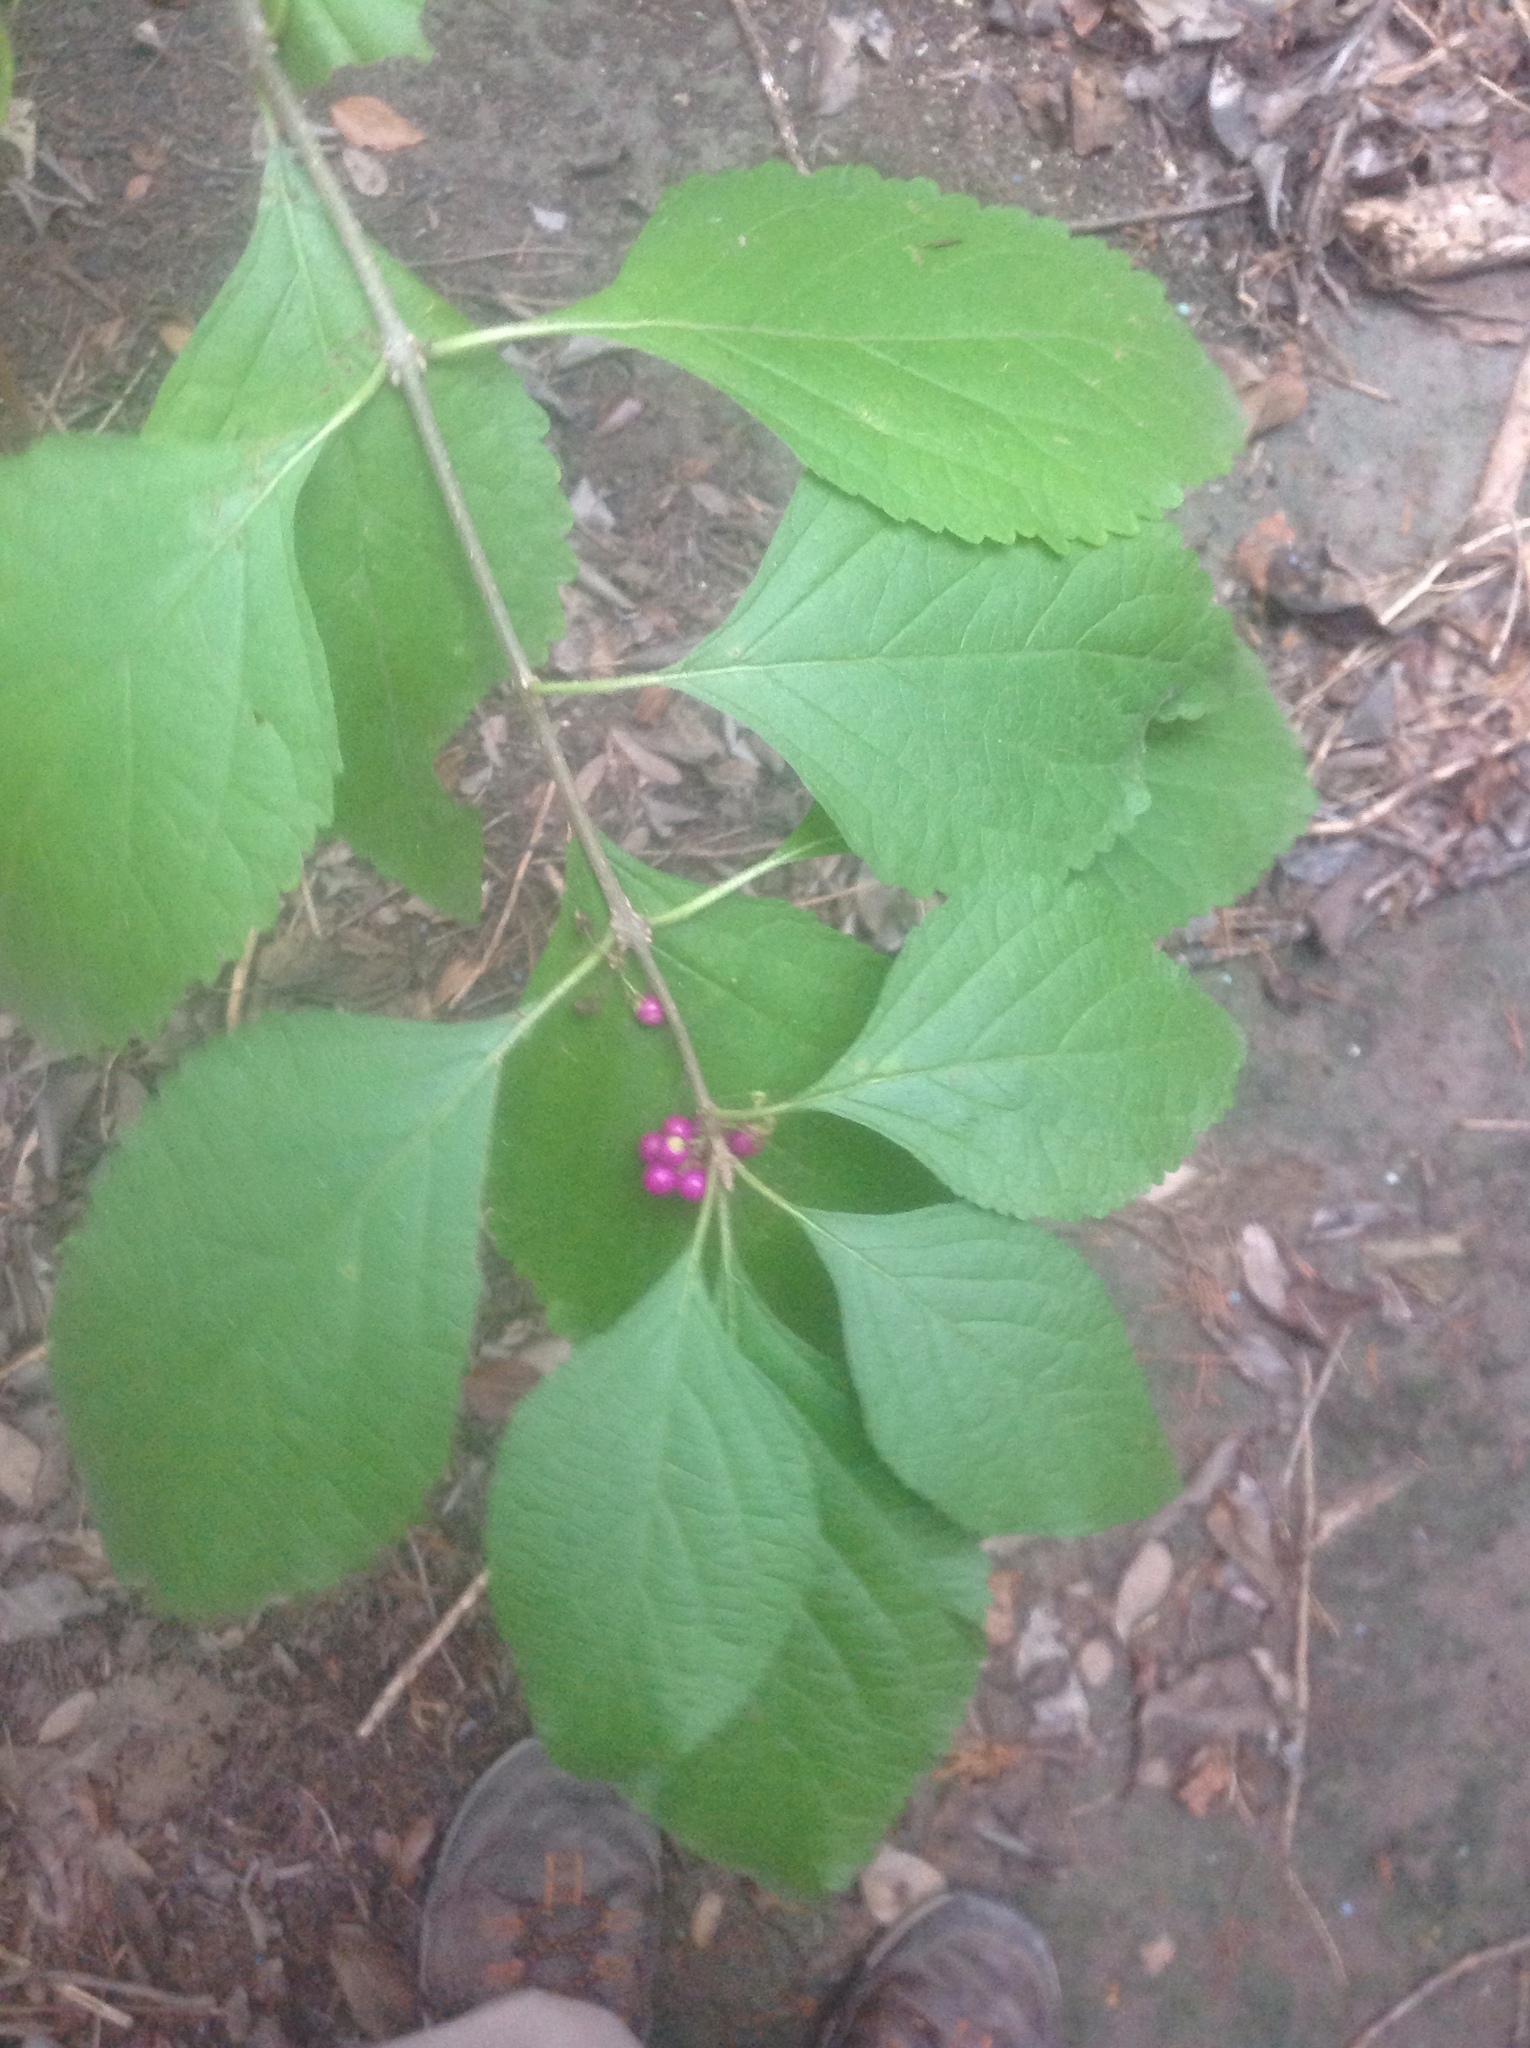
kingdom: Plantae
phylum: Tracheophyta
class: Magnoliopsida
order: Lamiales
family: Lamiaceae
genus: Callicarpa
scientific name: Callicarpa americana
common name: American beautyberry
